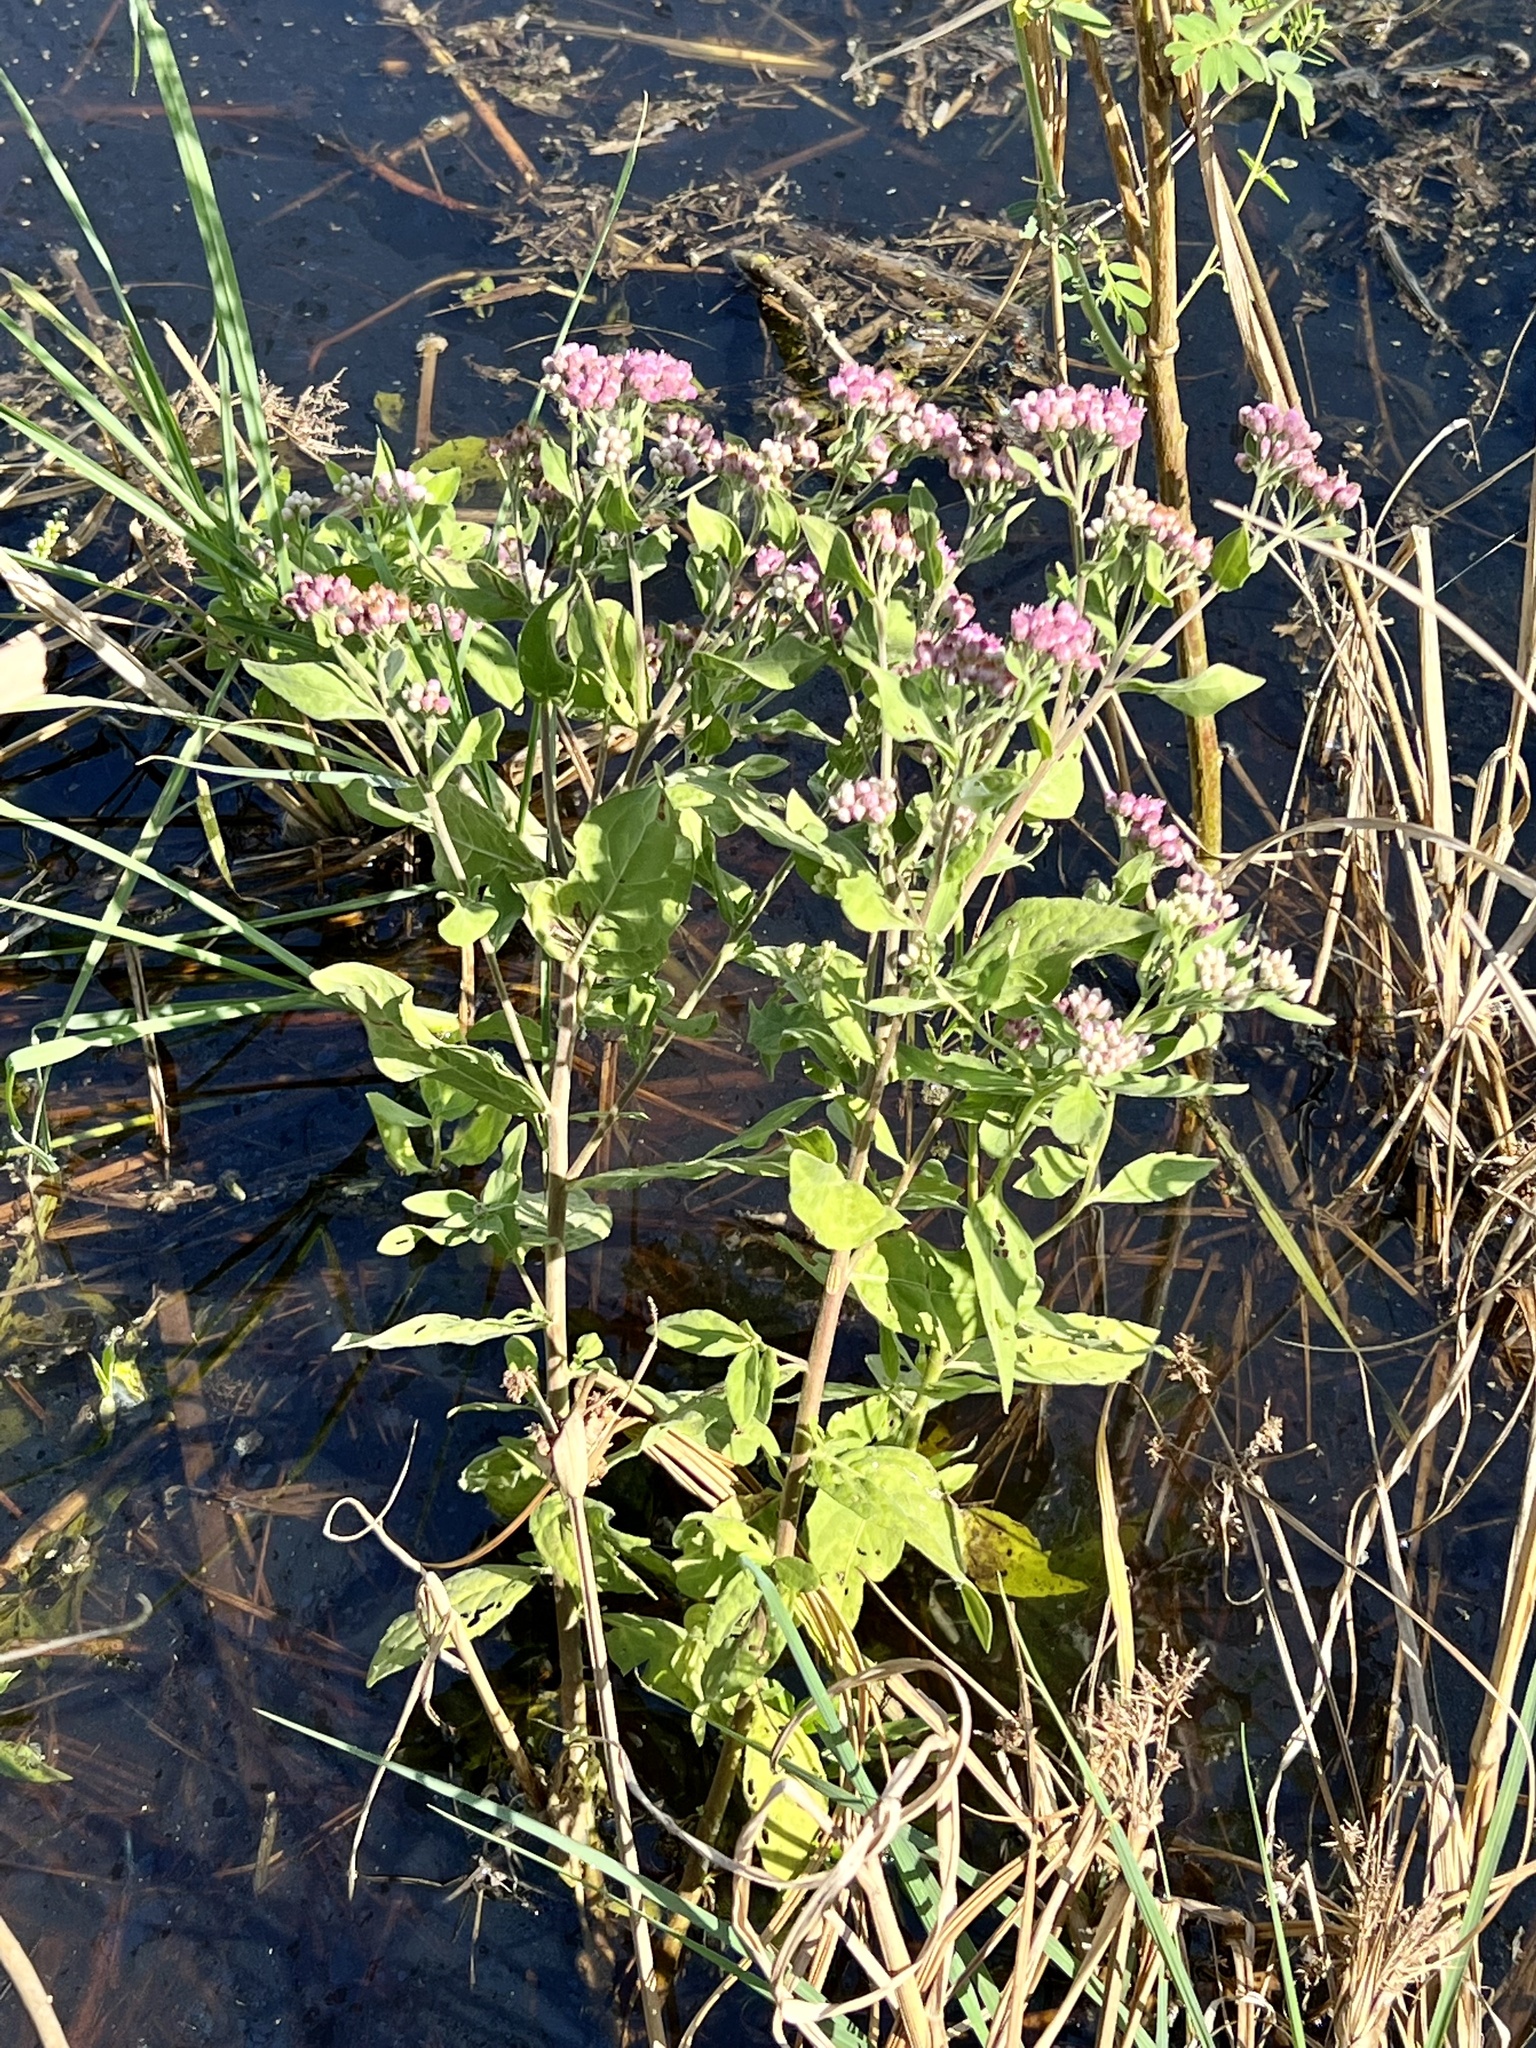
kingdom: Plantae
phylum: Tracheophyta
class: Magnoliopsida
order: Asterales
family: Asteraceae
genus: Pluchea
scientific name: Pluchea odorata
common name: Saltmarsh fleabane
